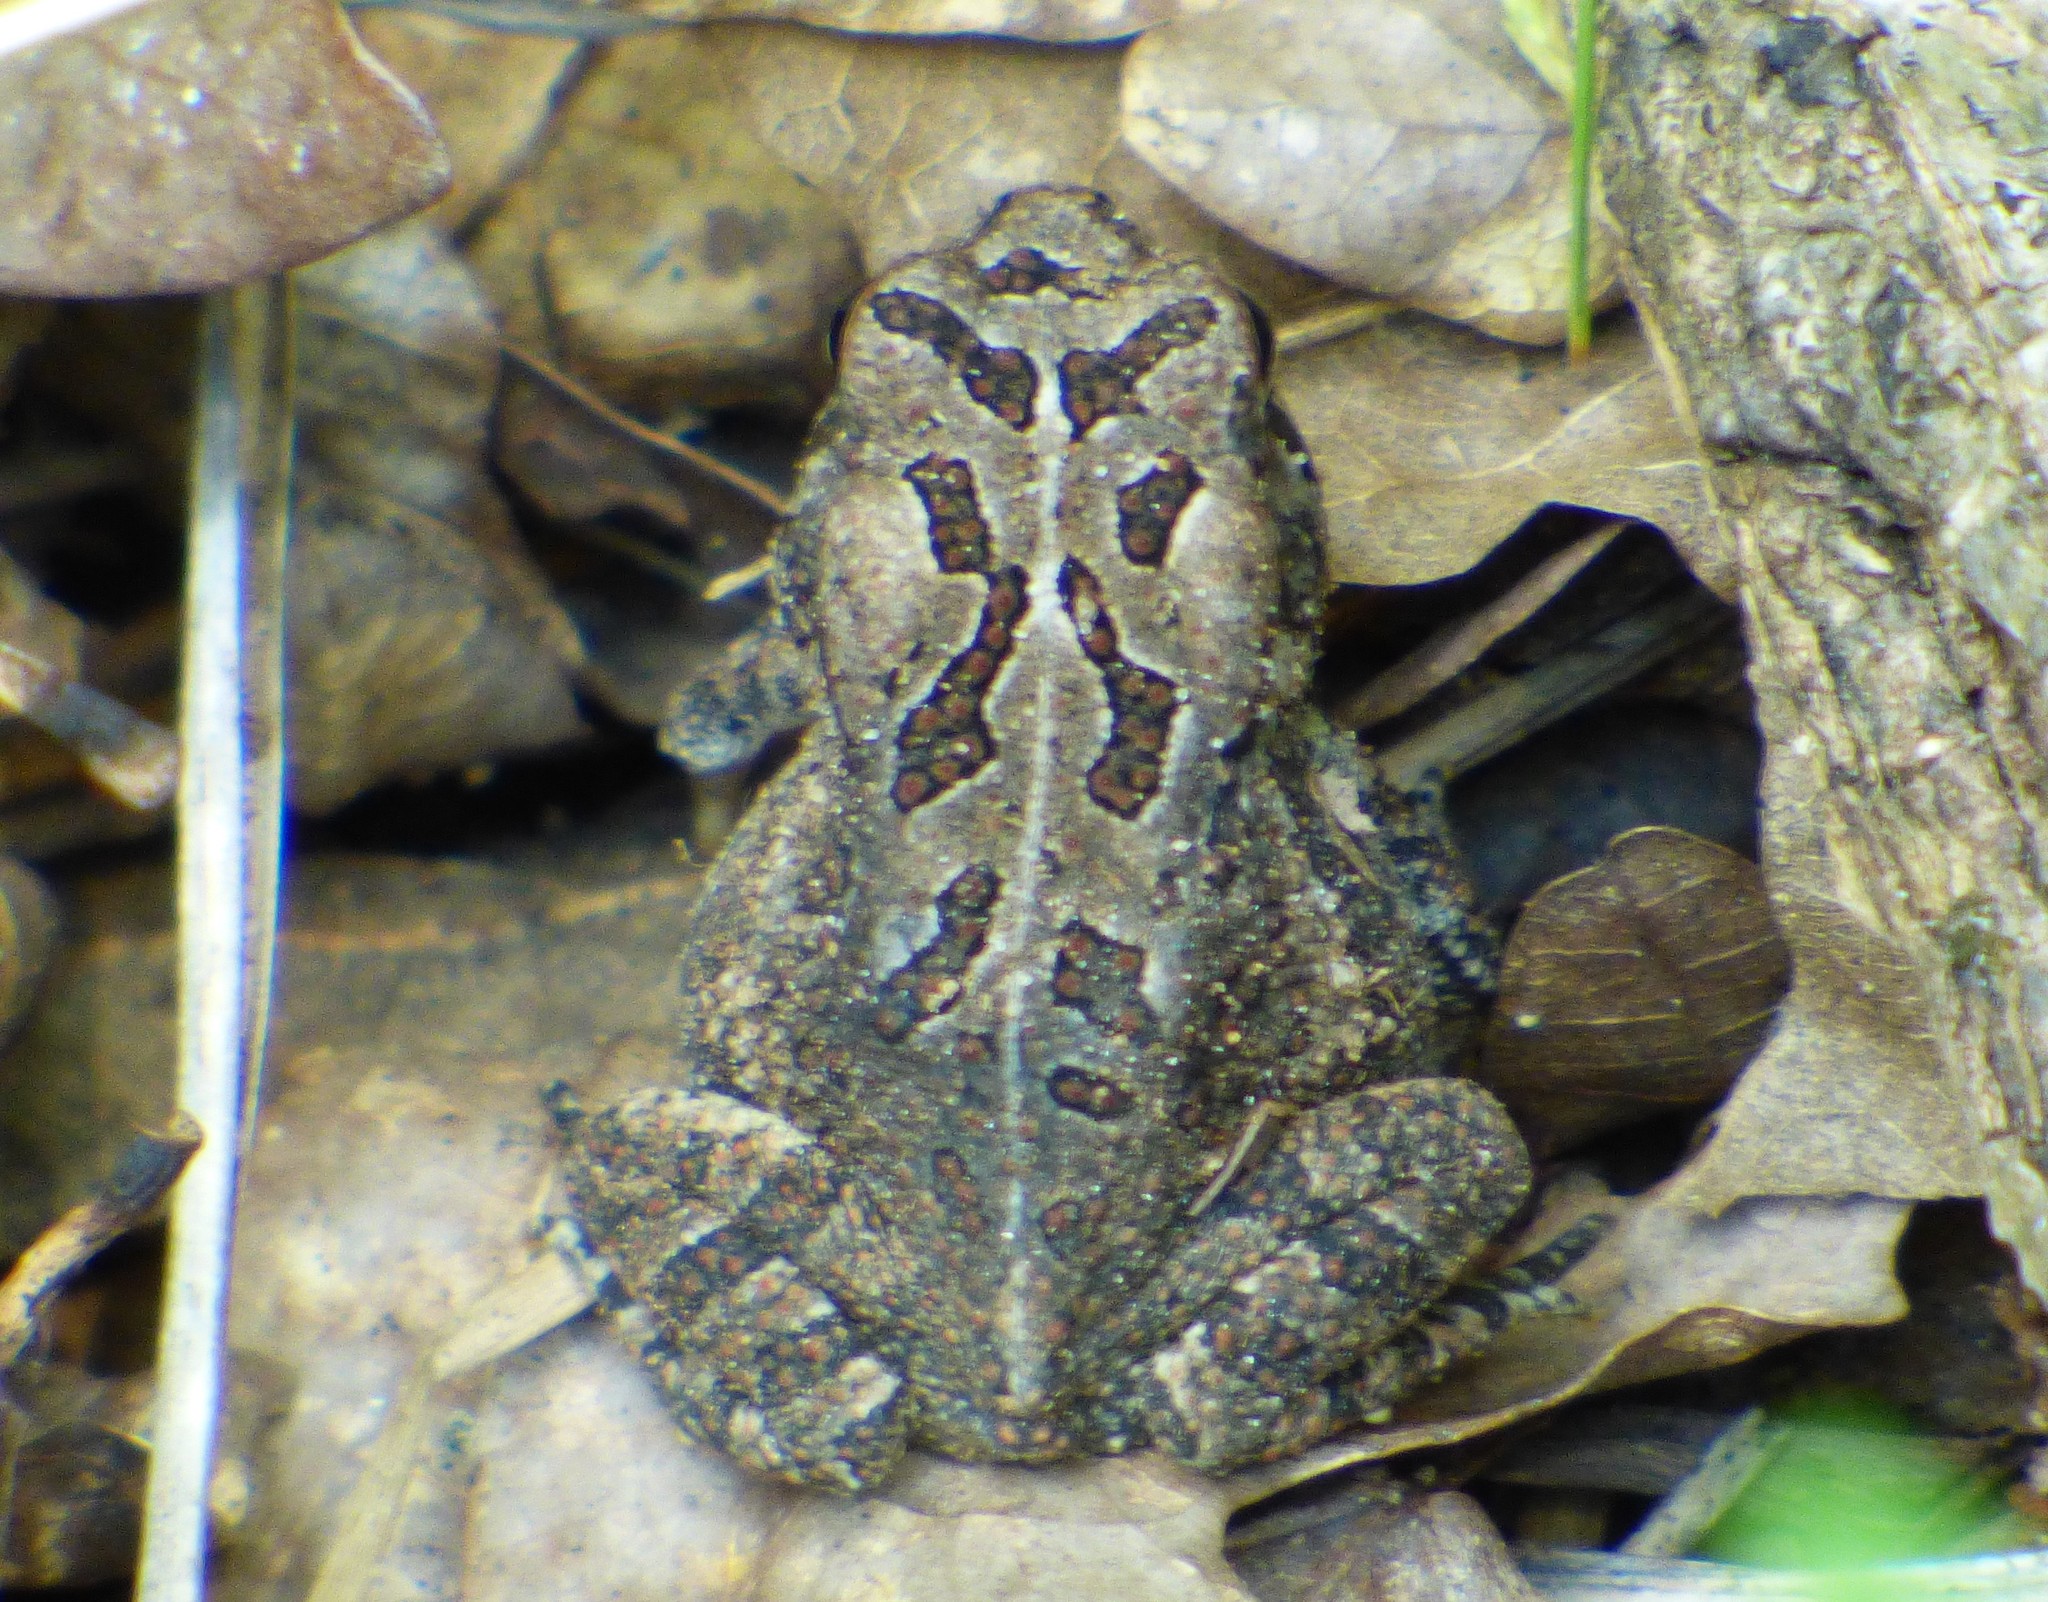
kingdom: Animalia
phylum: Chordata
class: Amphibia
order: Anura
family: Bufonidae
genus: Anaxyrus
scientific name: Anaxyrus fowleri
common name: Fowler's toad
